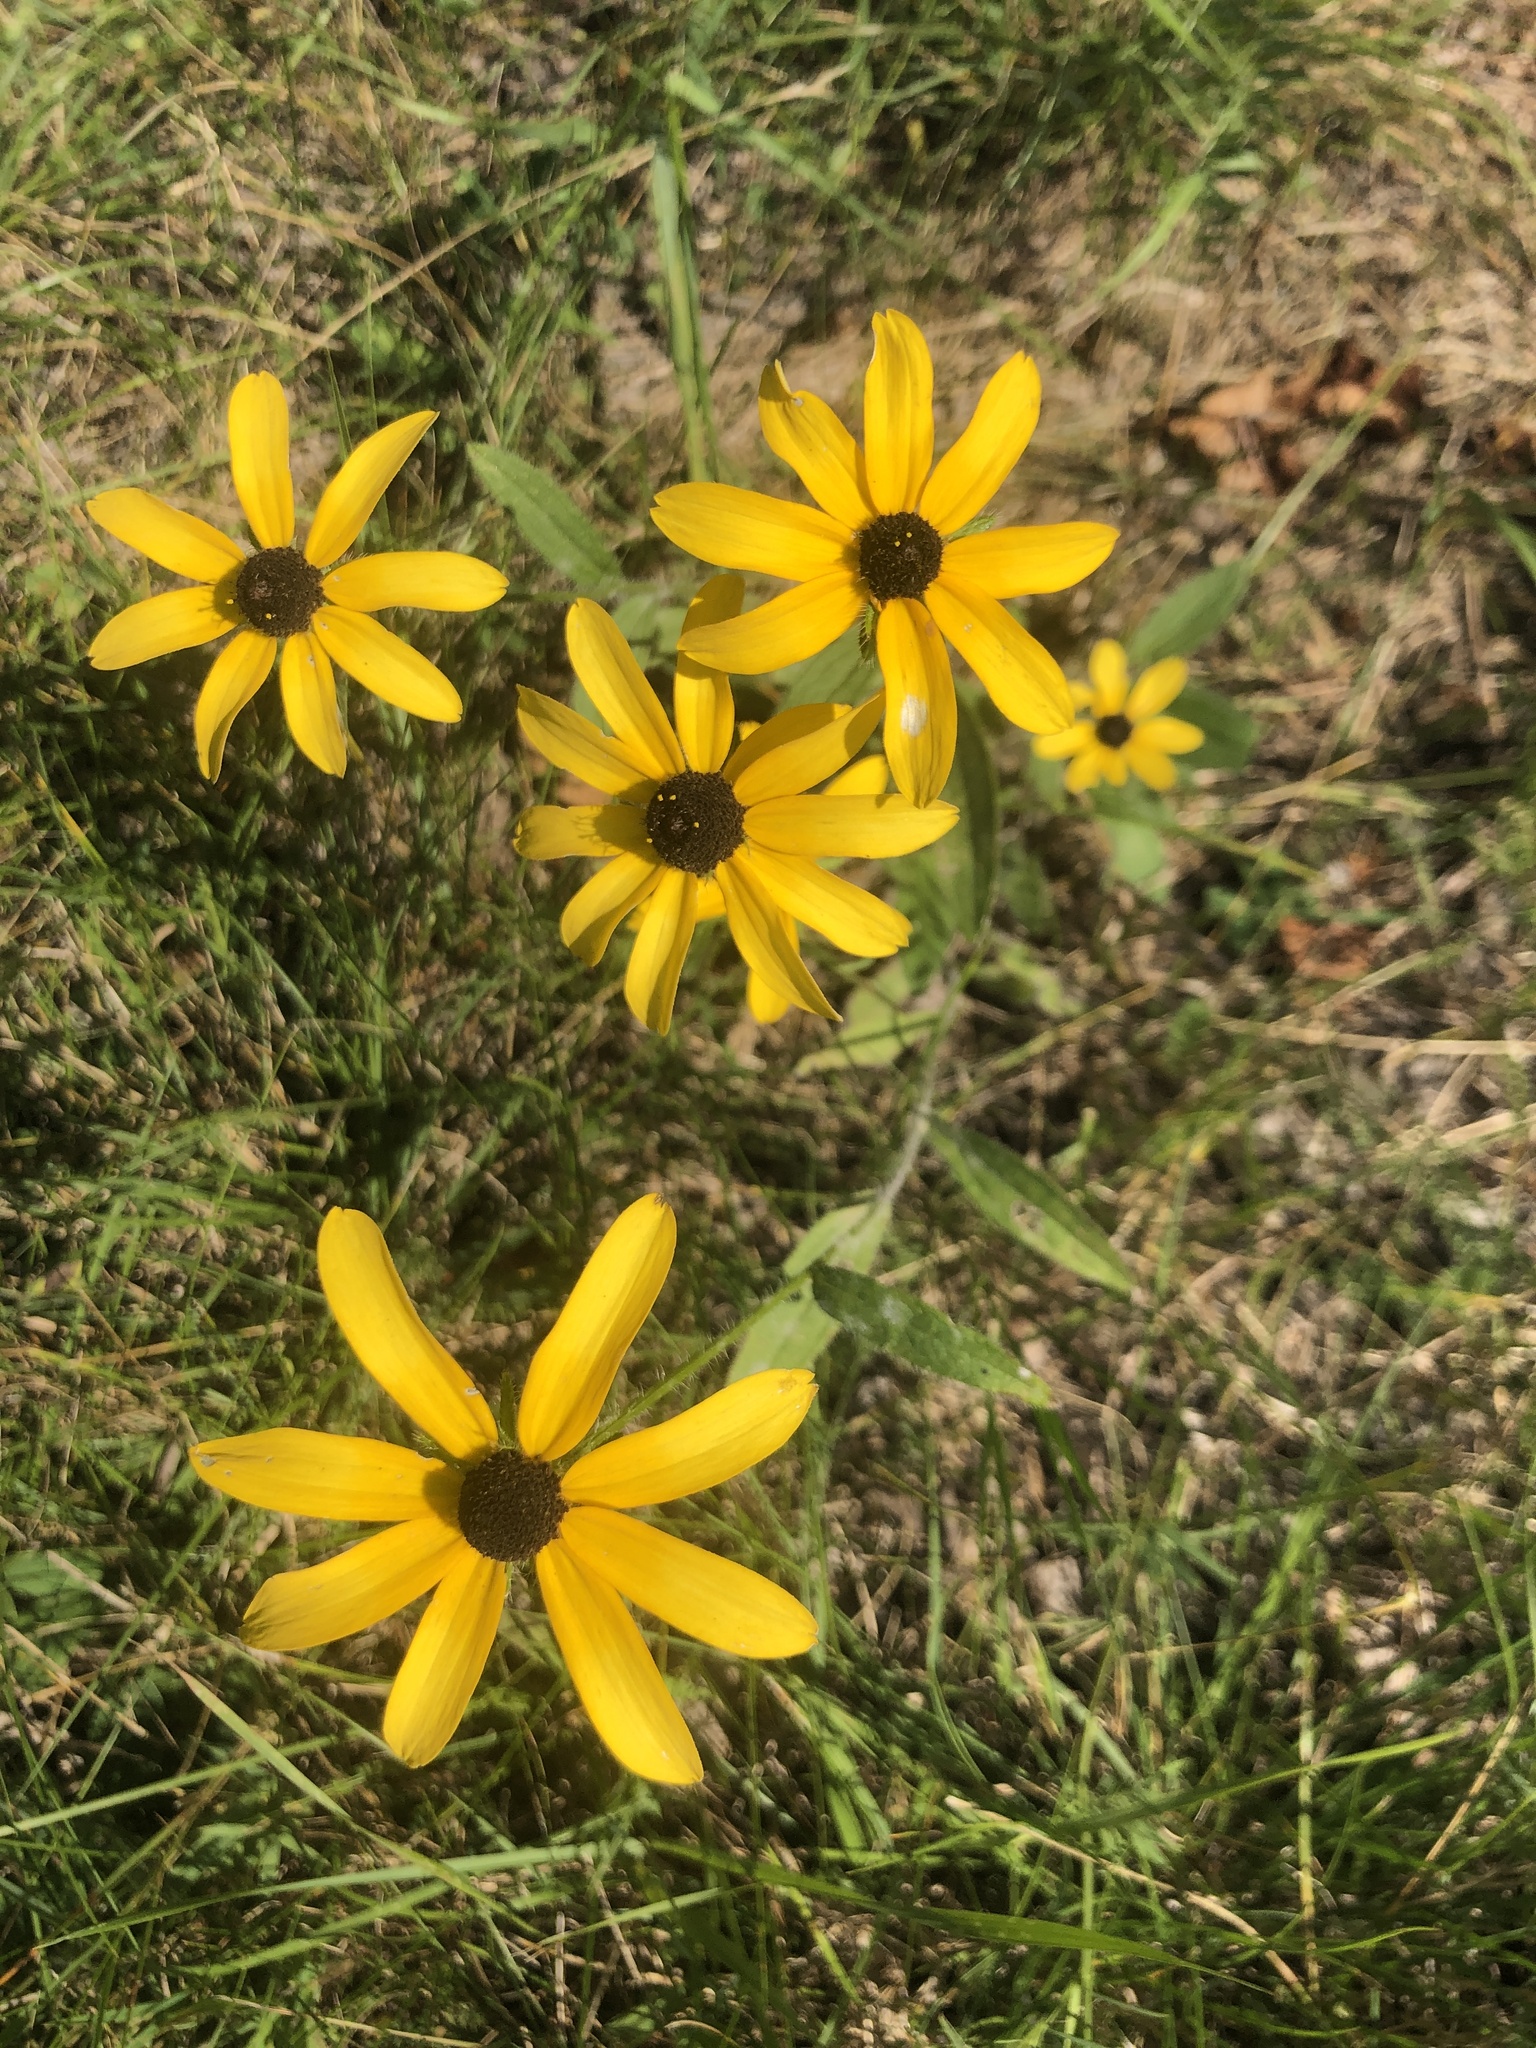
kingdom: Plantae
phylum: Tracheophyta
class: Magnoliopsida
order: Asterales
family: Asteraceae
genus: Rudbeckia
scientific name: Rudbeckia hirta
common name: Black-eyed-susan
